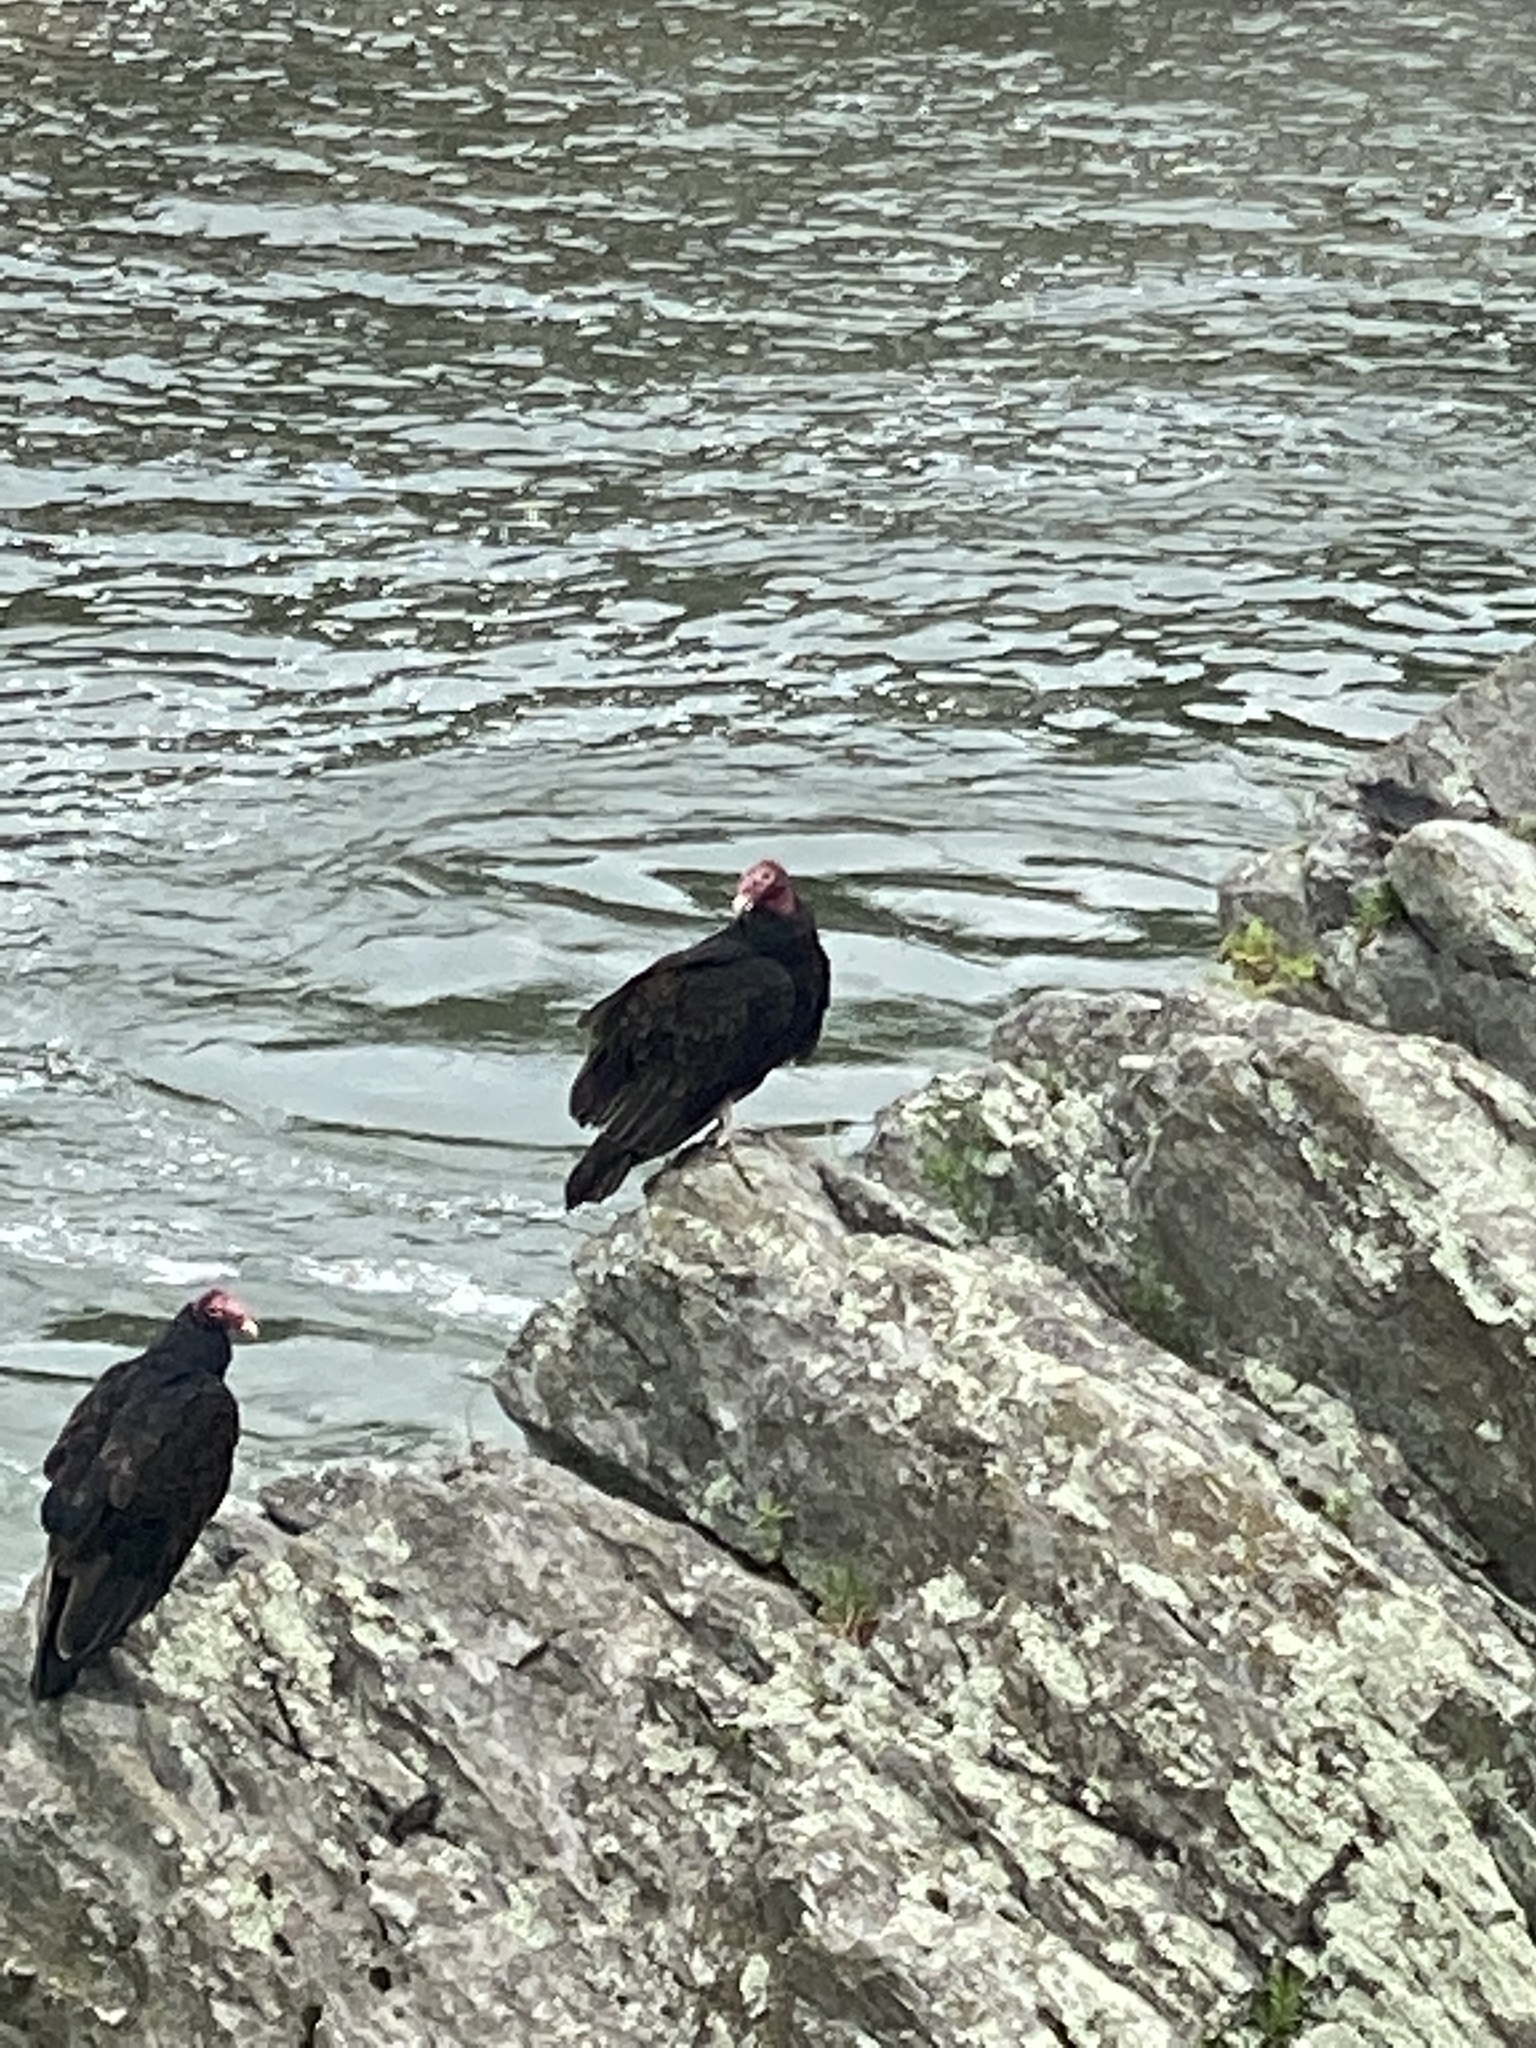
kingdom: Animalia
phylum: Chordata
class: Aves
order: Accipitriformes
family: Cathartidae
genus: Cathartes
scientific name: Cathartes aura
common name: Turkey vulture
